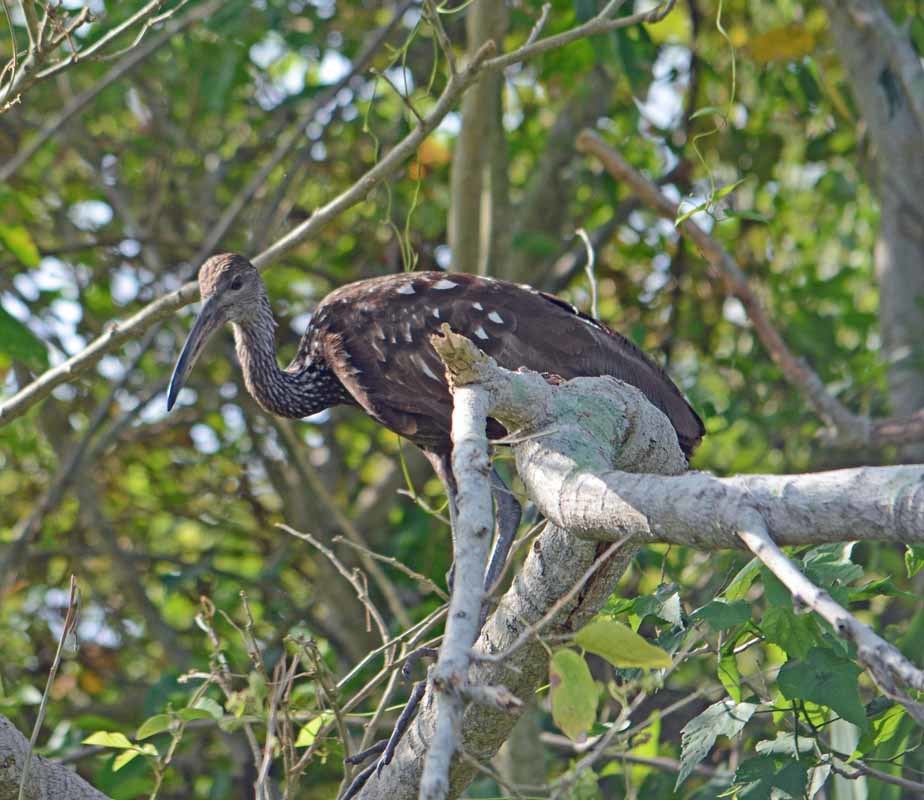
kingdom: Animalia
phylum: Chordata
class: Aves
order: Gruiformes
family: Aramidae
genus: Aramus
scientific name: Aramus guarauna
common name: Limpkin
